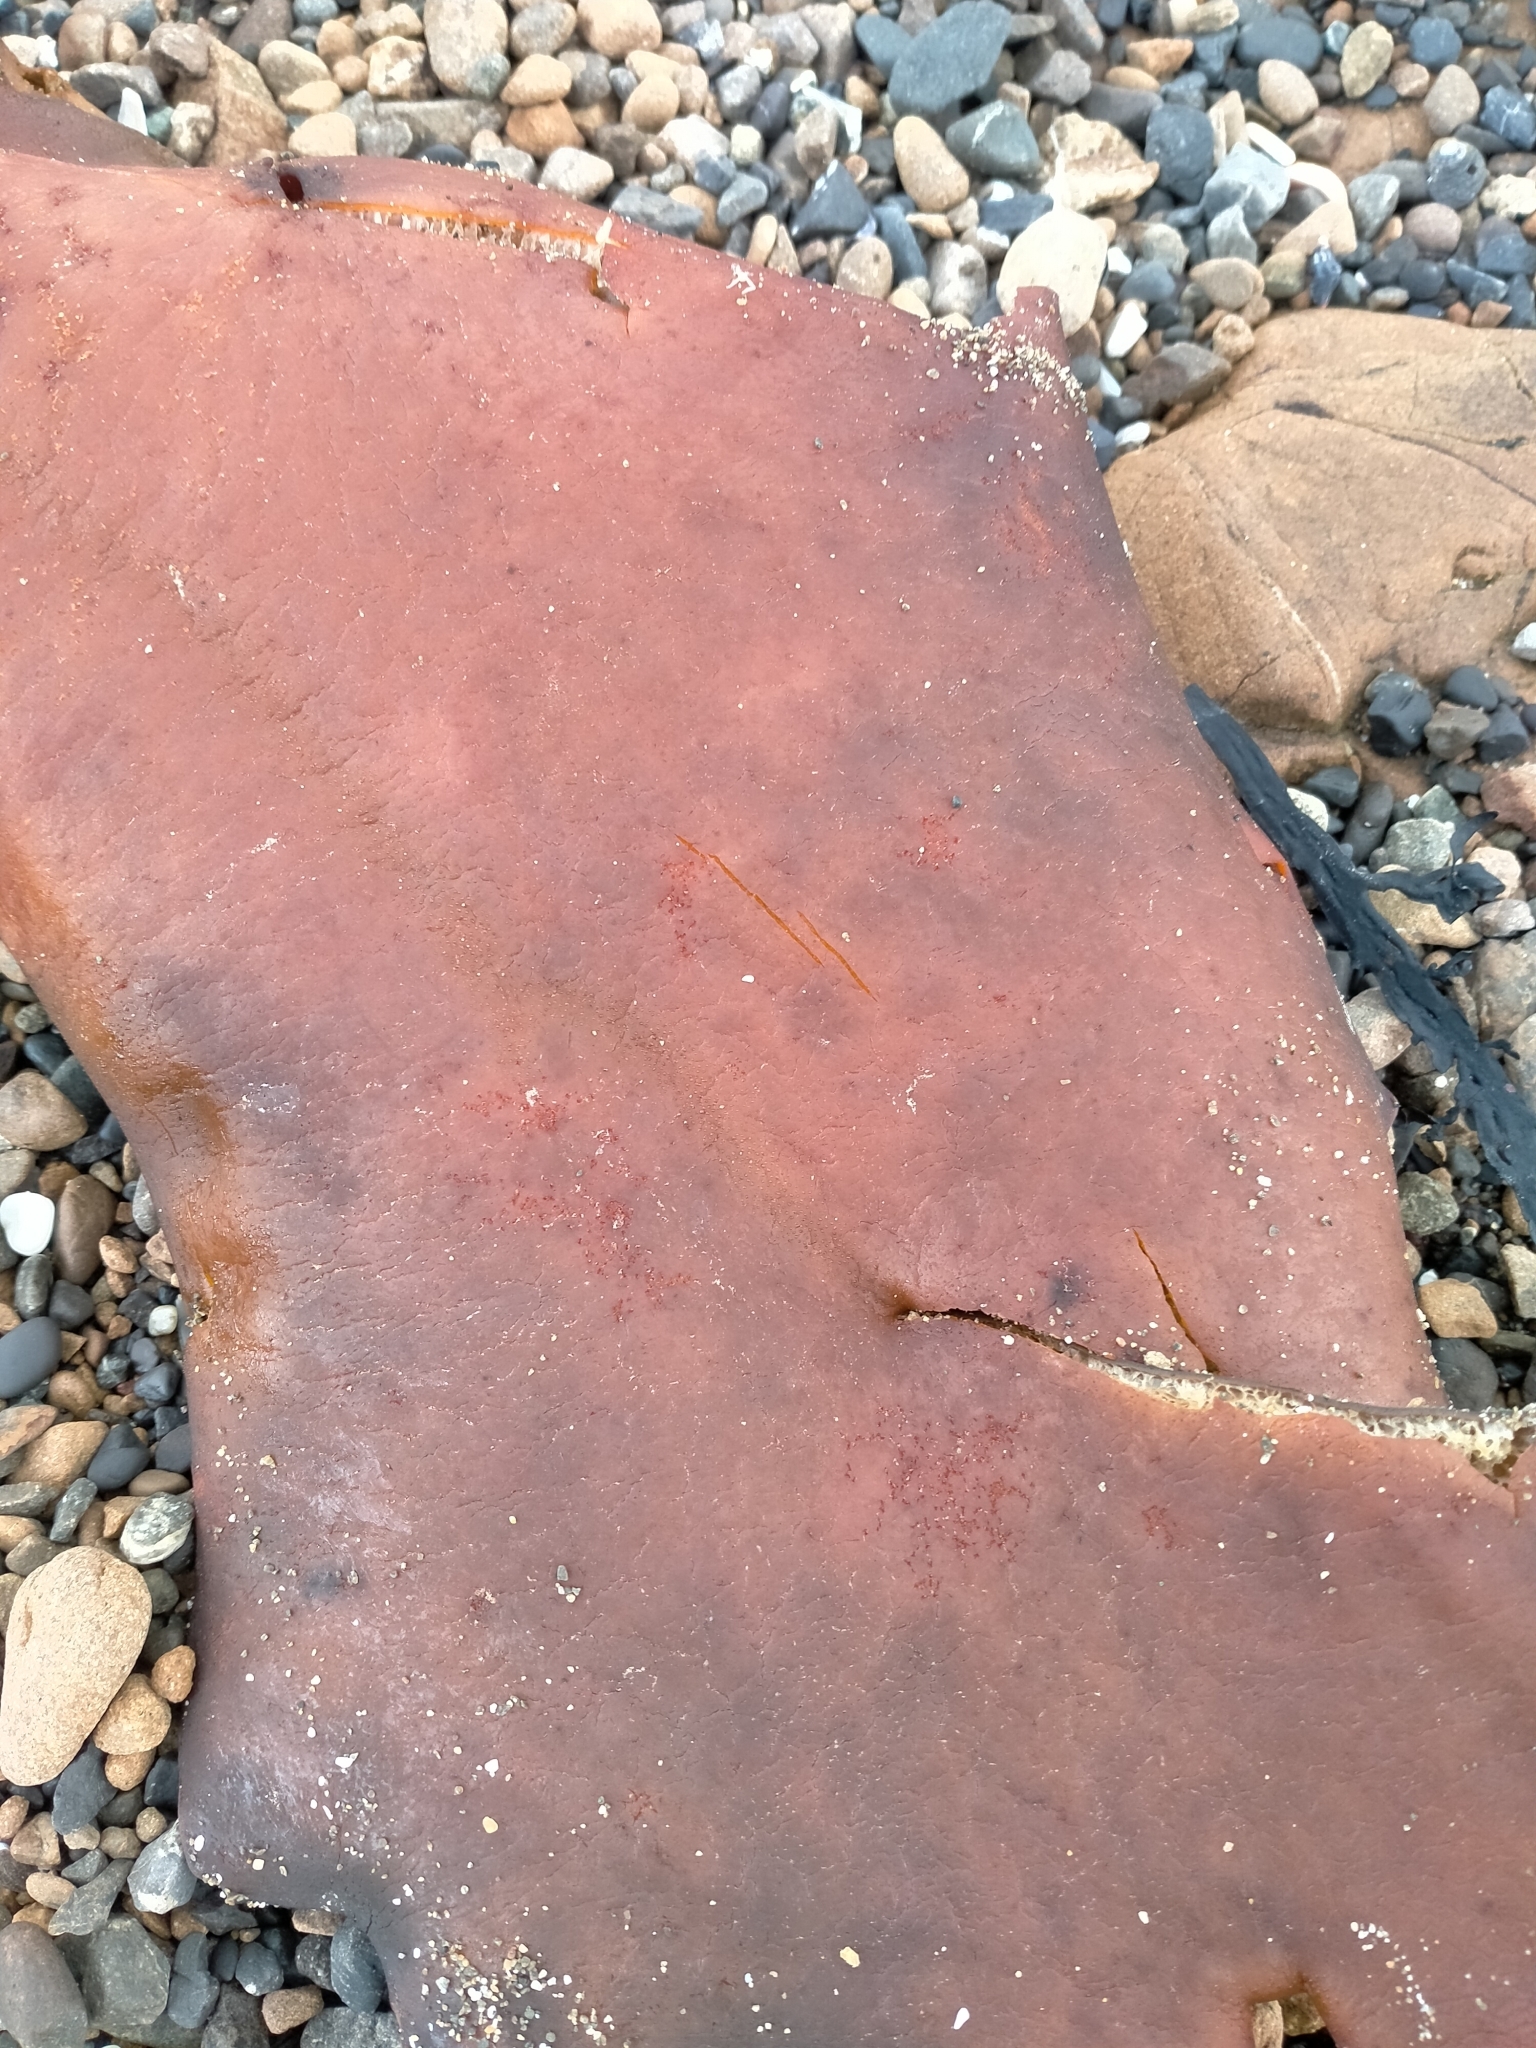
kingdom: Chromista
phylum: Ochrophyta
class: Phaeophyceae
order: Fucales
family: Durvillaeaceae
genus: Durvillaea
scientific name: Durvillaea antarctica
